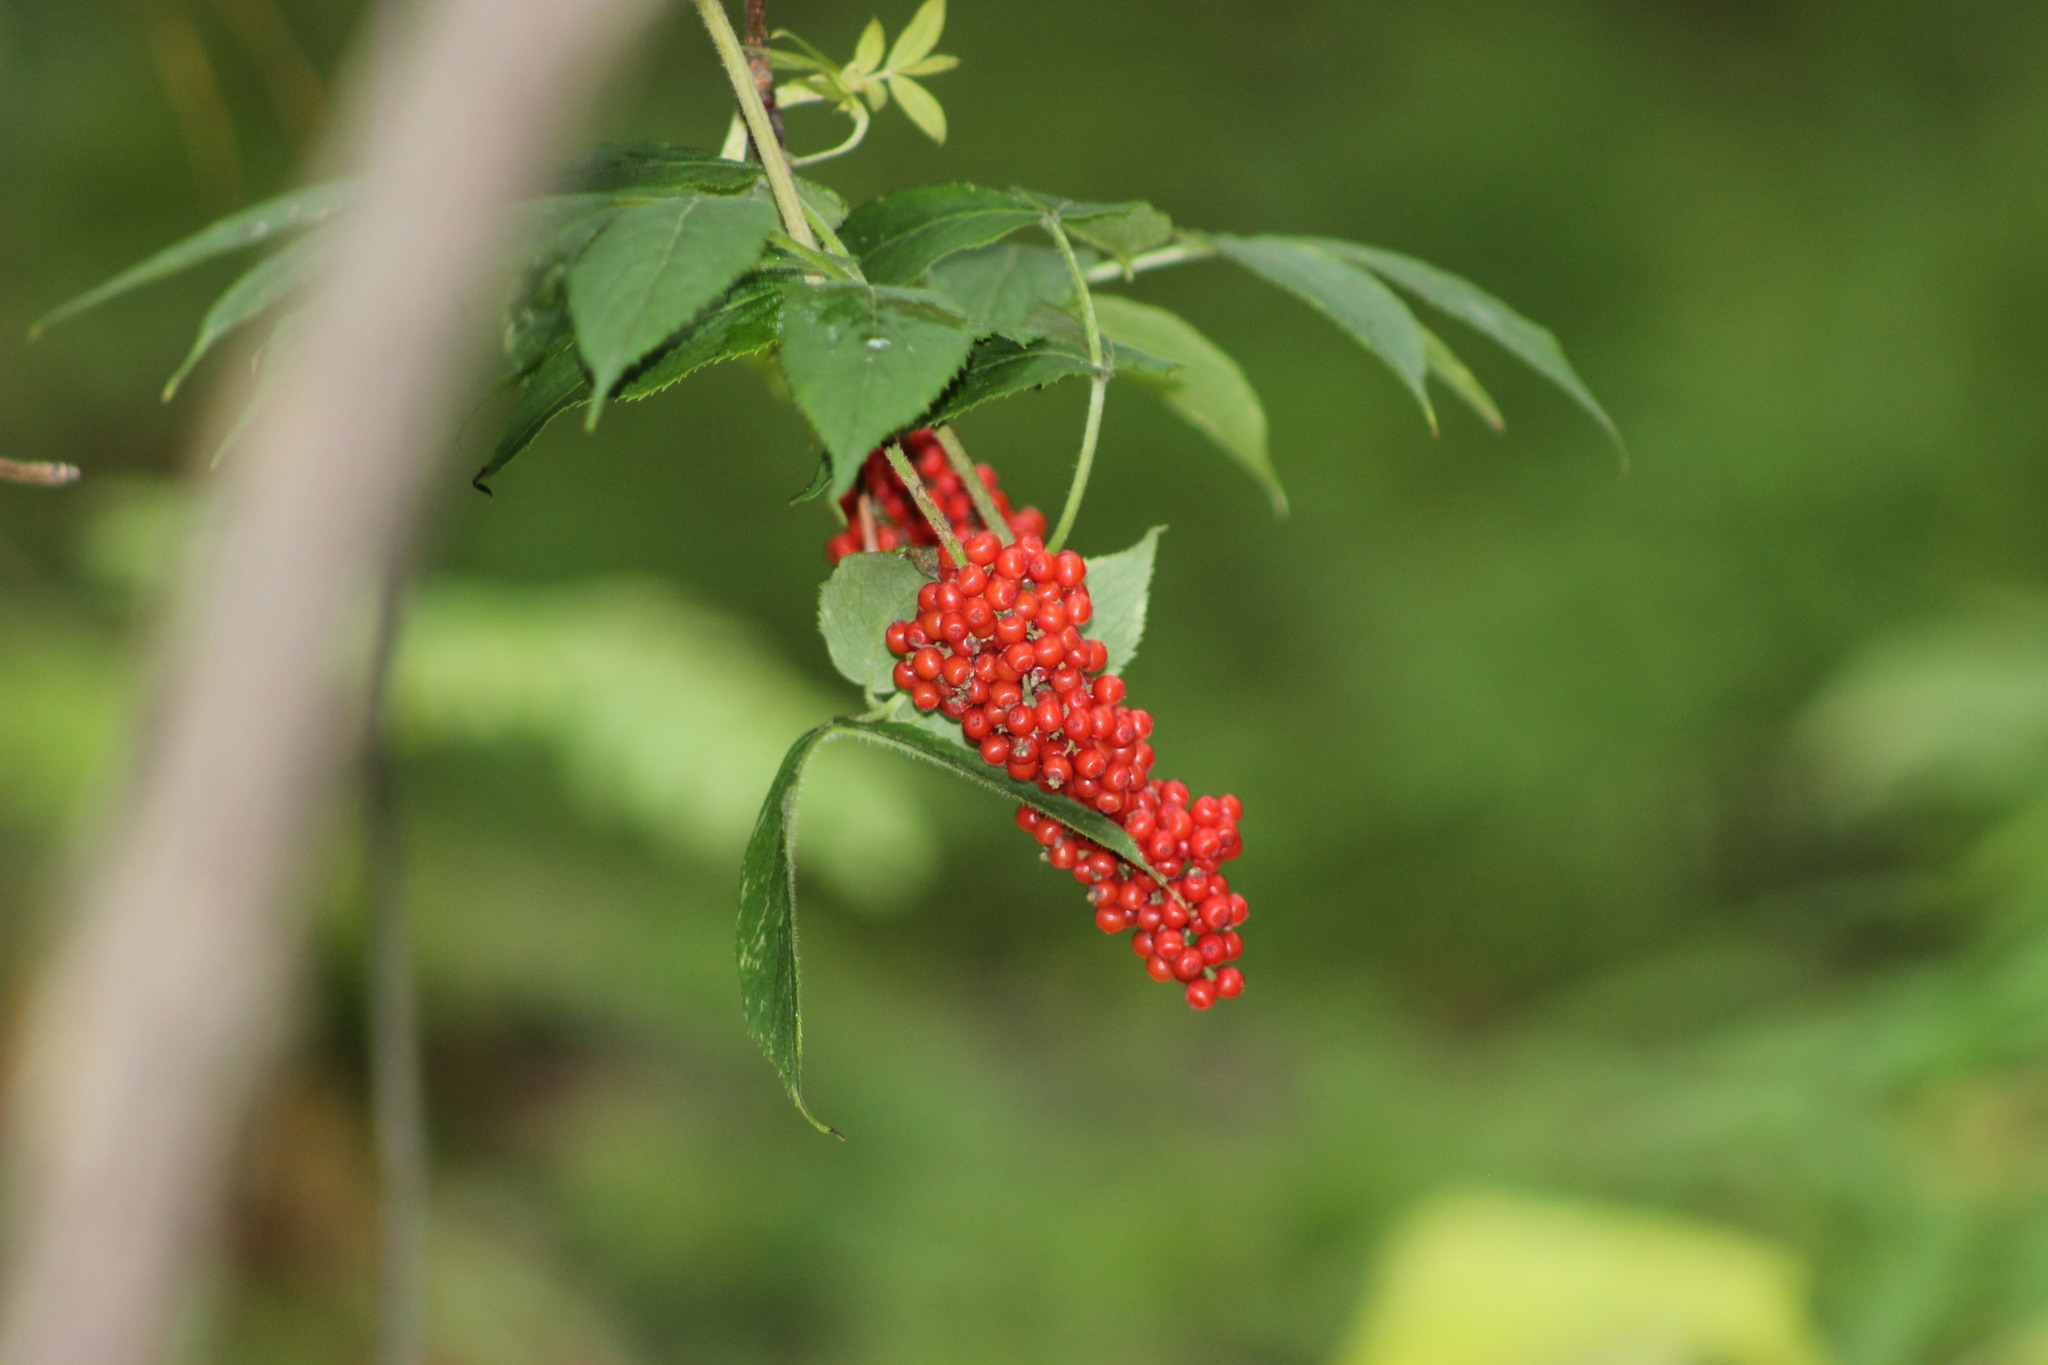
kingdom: Plantae
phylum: Tracheophyta
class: Magnoliopsida
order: Dipsacales
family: Viburnaceae
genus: Sambucus
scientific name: Sambucus sibirica
